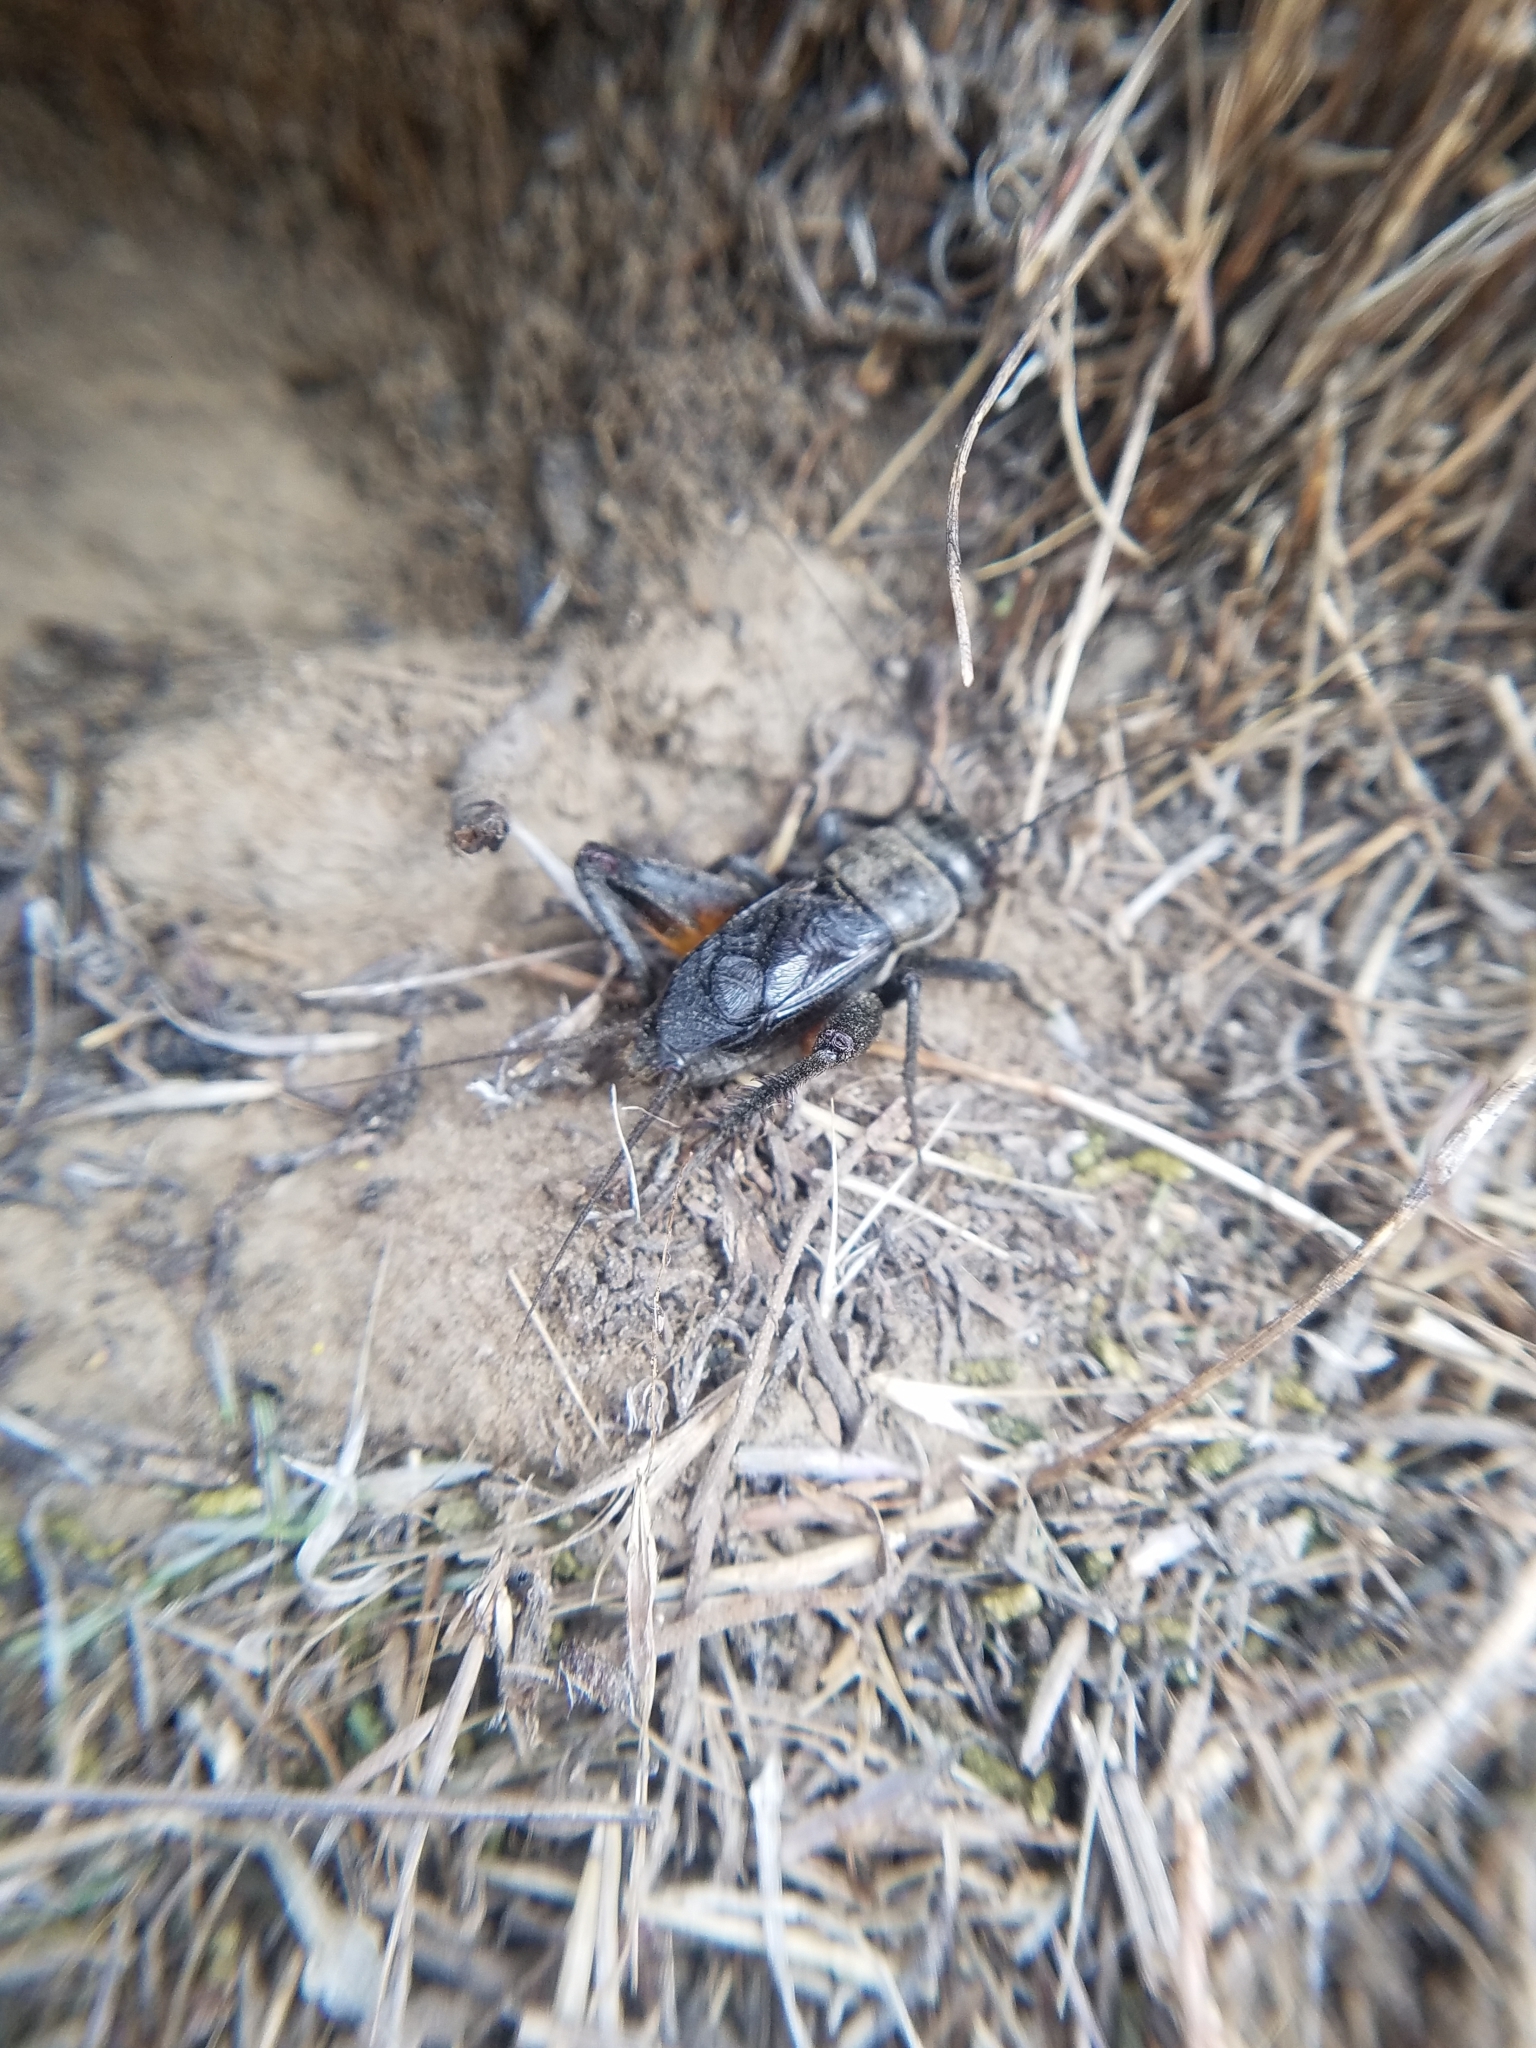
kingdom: Animalia
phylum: Arthropoda
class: Insecta
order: Orthoptera
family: Gryllidae
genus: Gryllus
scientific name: Gryllus saxatilis
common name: Western rock-loving field cricket
